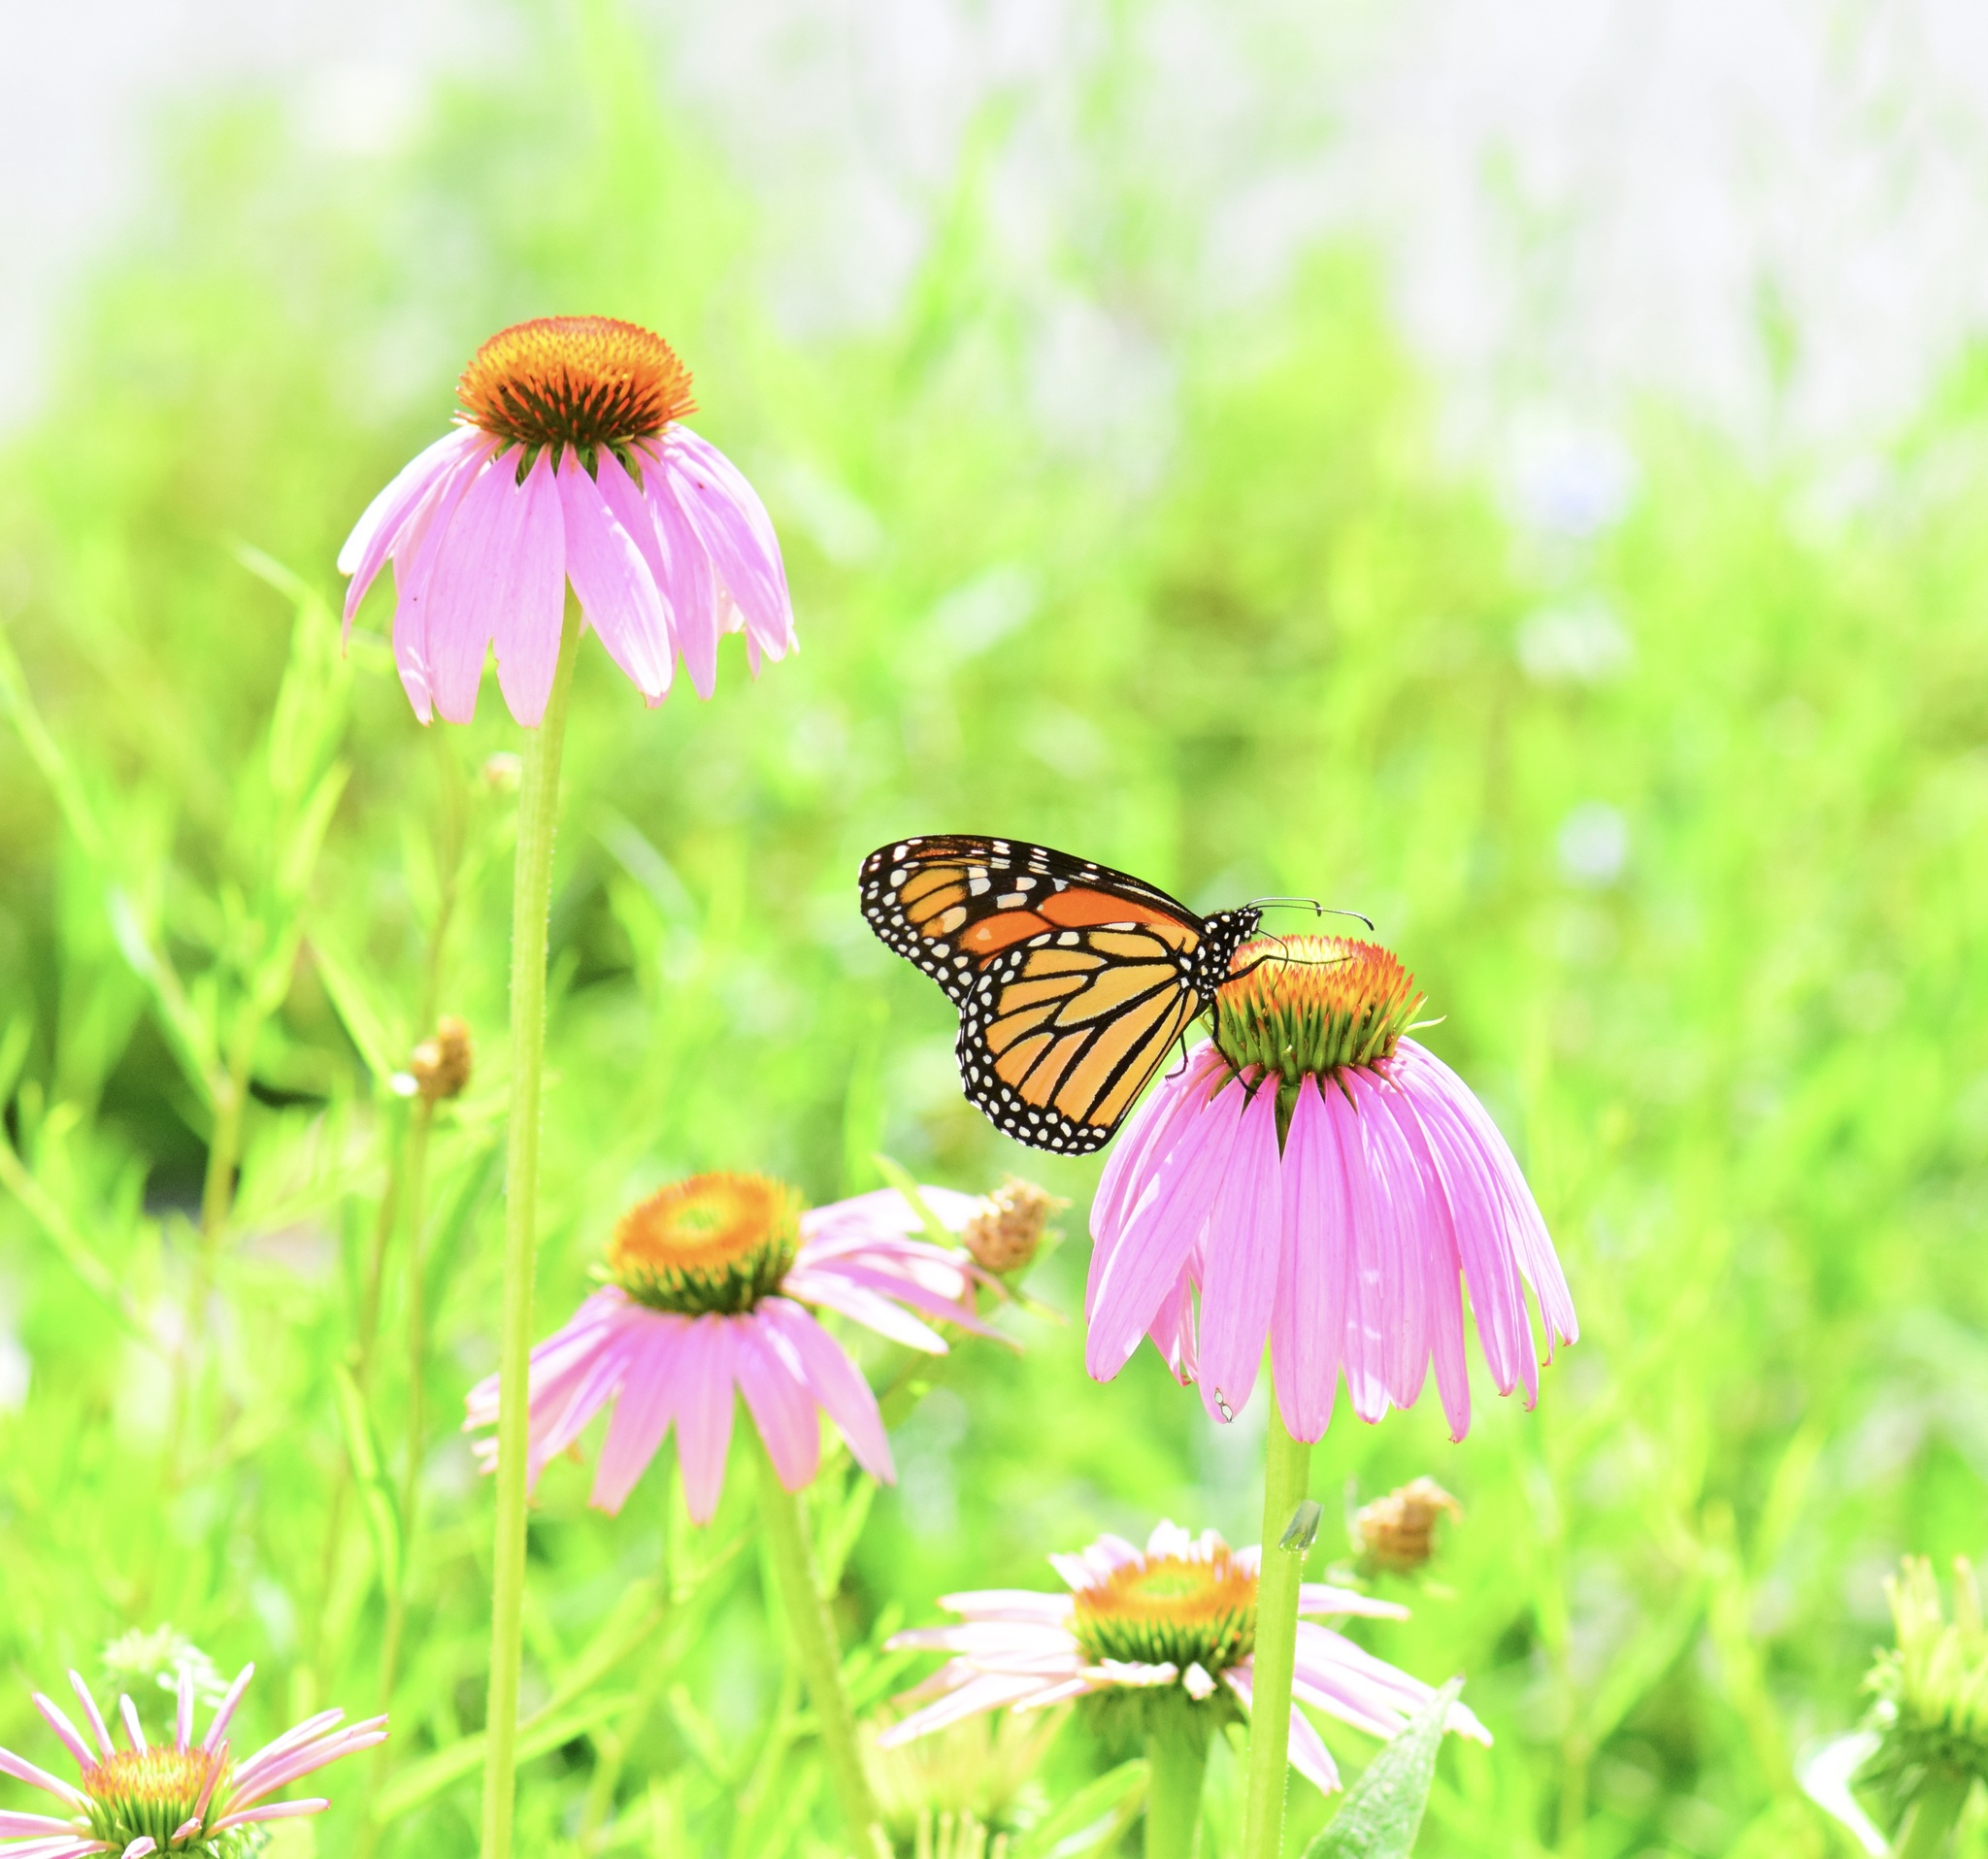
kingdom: Animalia
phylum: Arthropoda
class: Insecta
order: Lepidoptera
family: Nymphalidae
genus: Danaus
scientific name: Danaus plexippus
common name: Monarch
